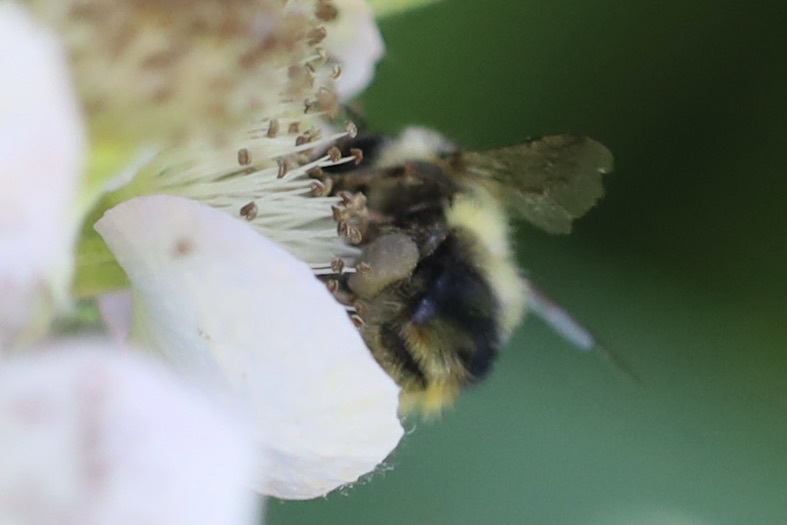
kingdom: Animalia
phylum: Arthropoda
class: Insecta
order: Hymenoptera
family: Apidae
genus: Bombus
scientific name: Bombus mixtus
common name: Fuzzy-horned bumble bee
